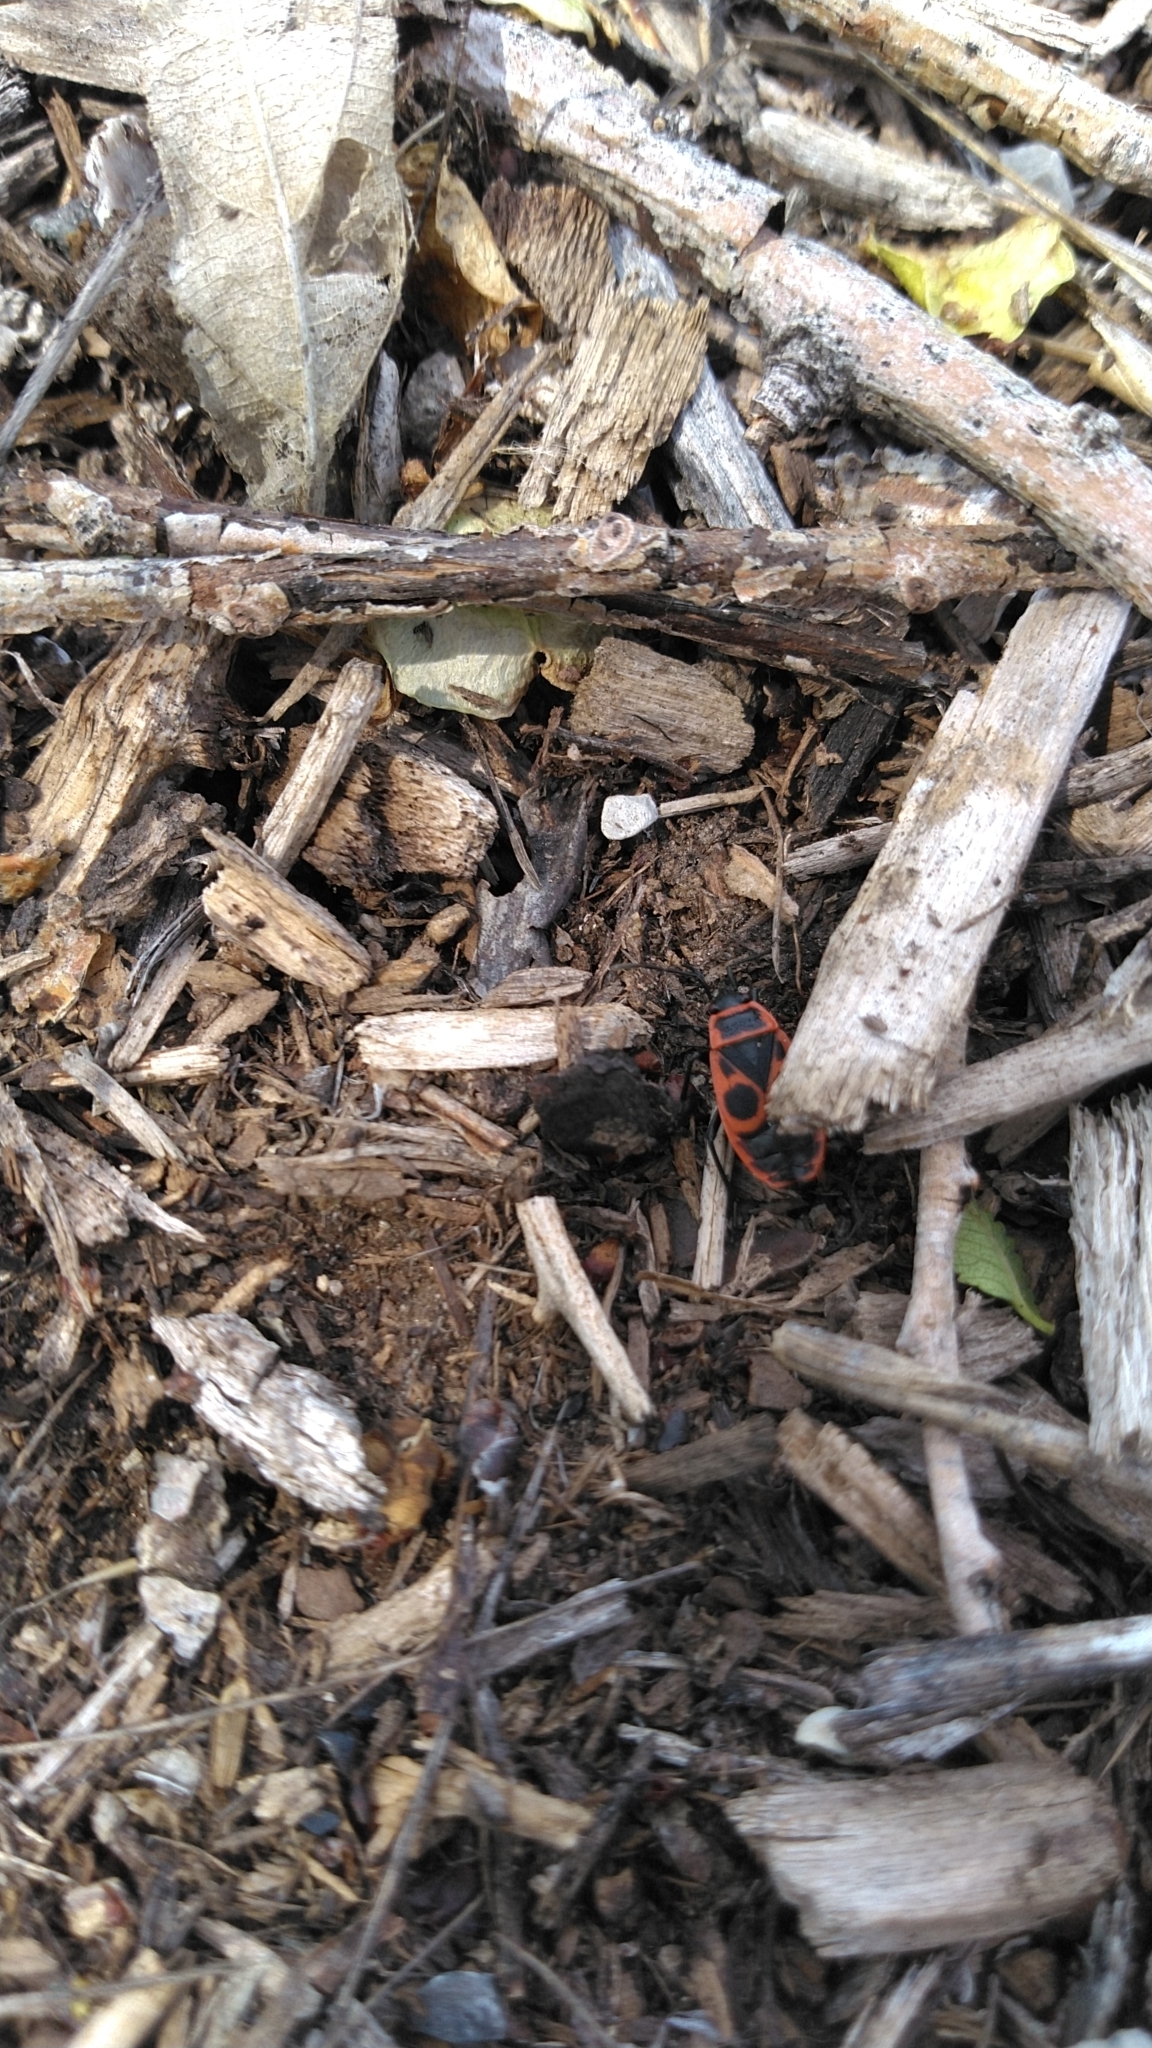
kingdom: Animalia
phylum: Arthropoda
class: Insecta
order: Hemiptera
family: Pyrrhocoridae
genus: Pyrrhocoris
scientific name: Pyrrhocoris apterus
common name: Firebug
